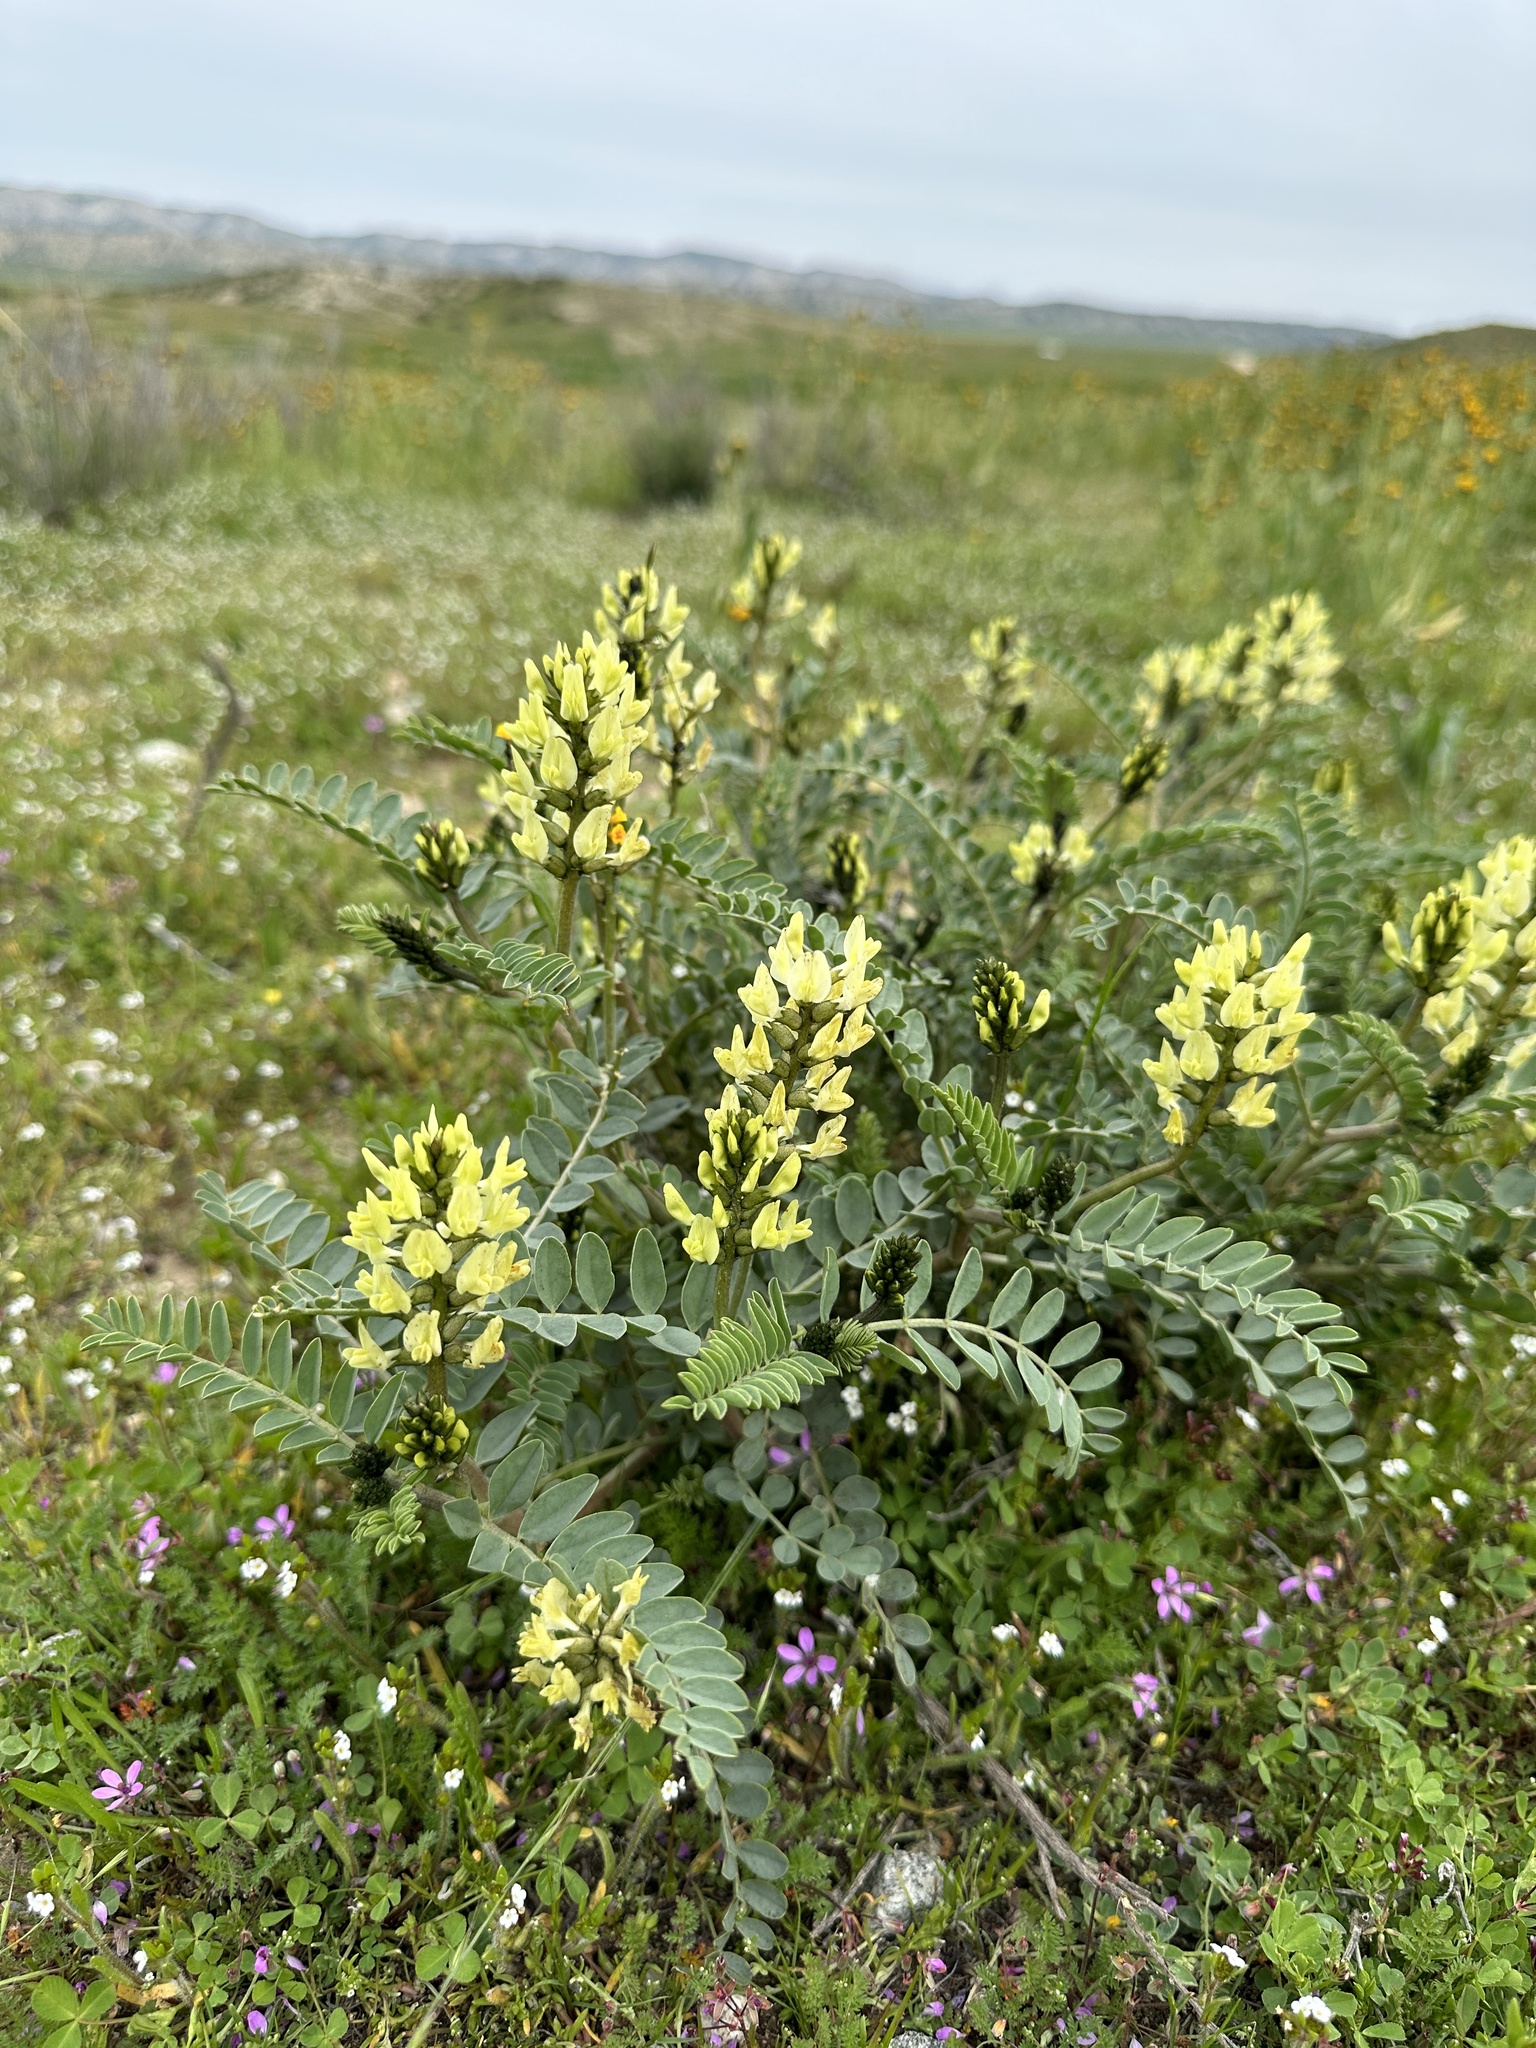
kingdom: Plantae
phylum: Tracheophyta
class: Magnoliopsida
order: Fabales
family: Fabaceae
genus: Astragalus
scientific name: Astragalus lentiginosus
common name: Freckled milkvetch
